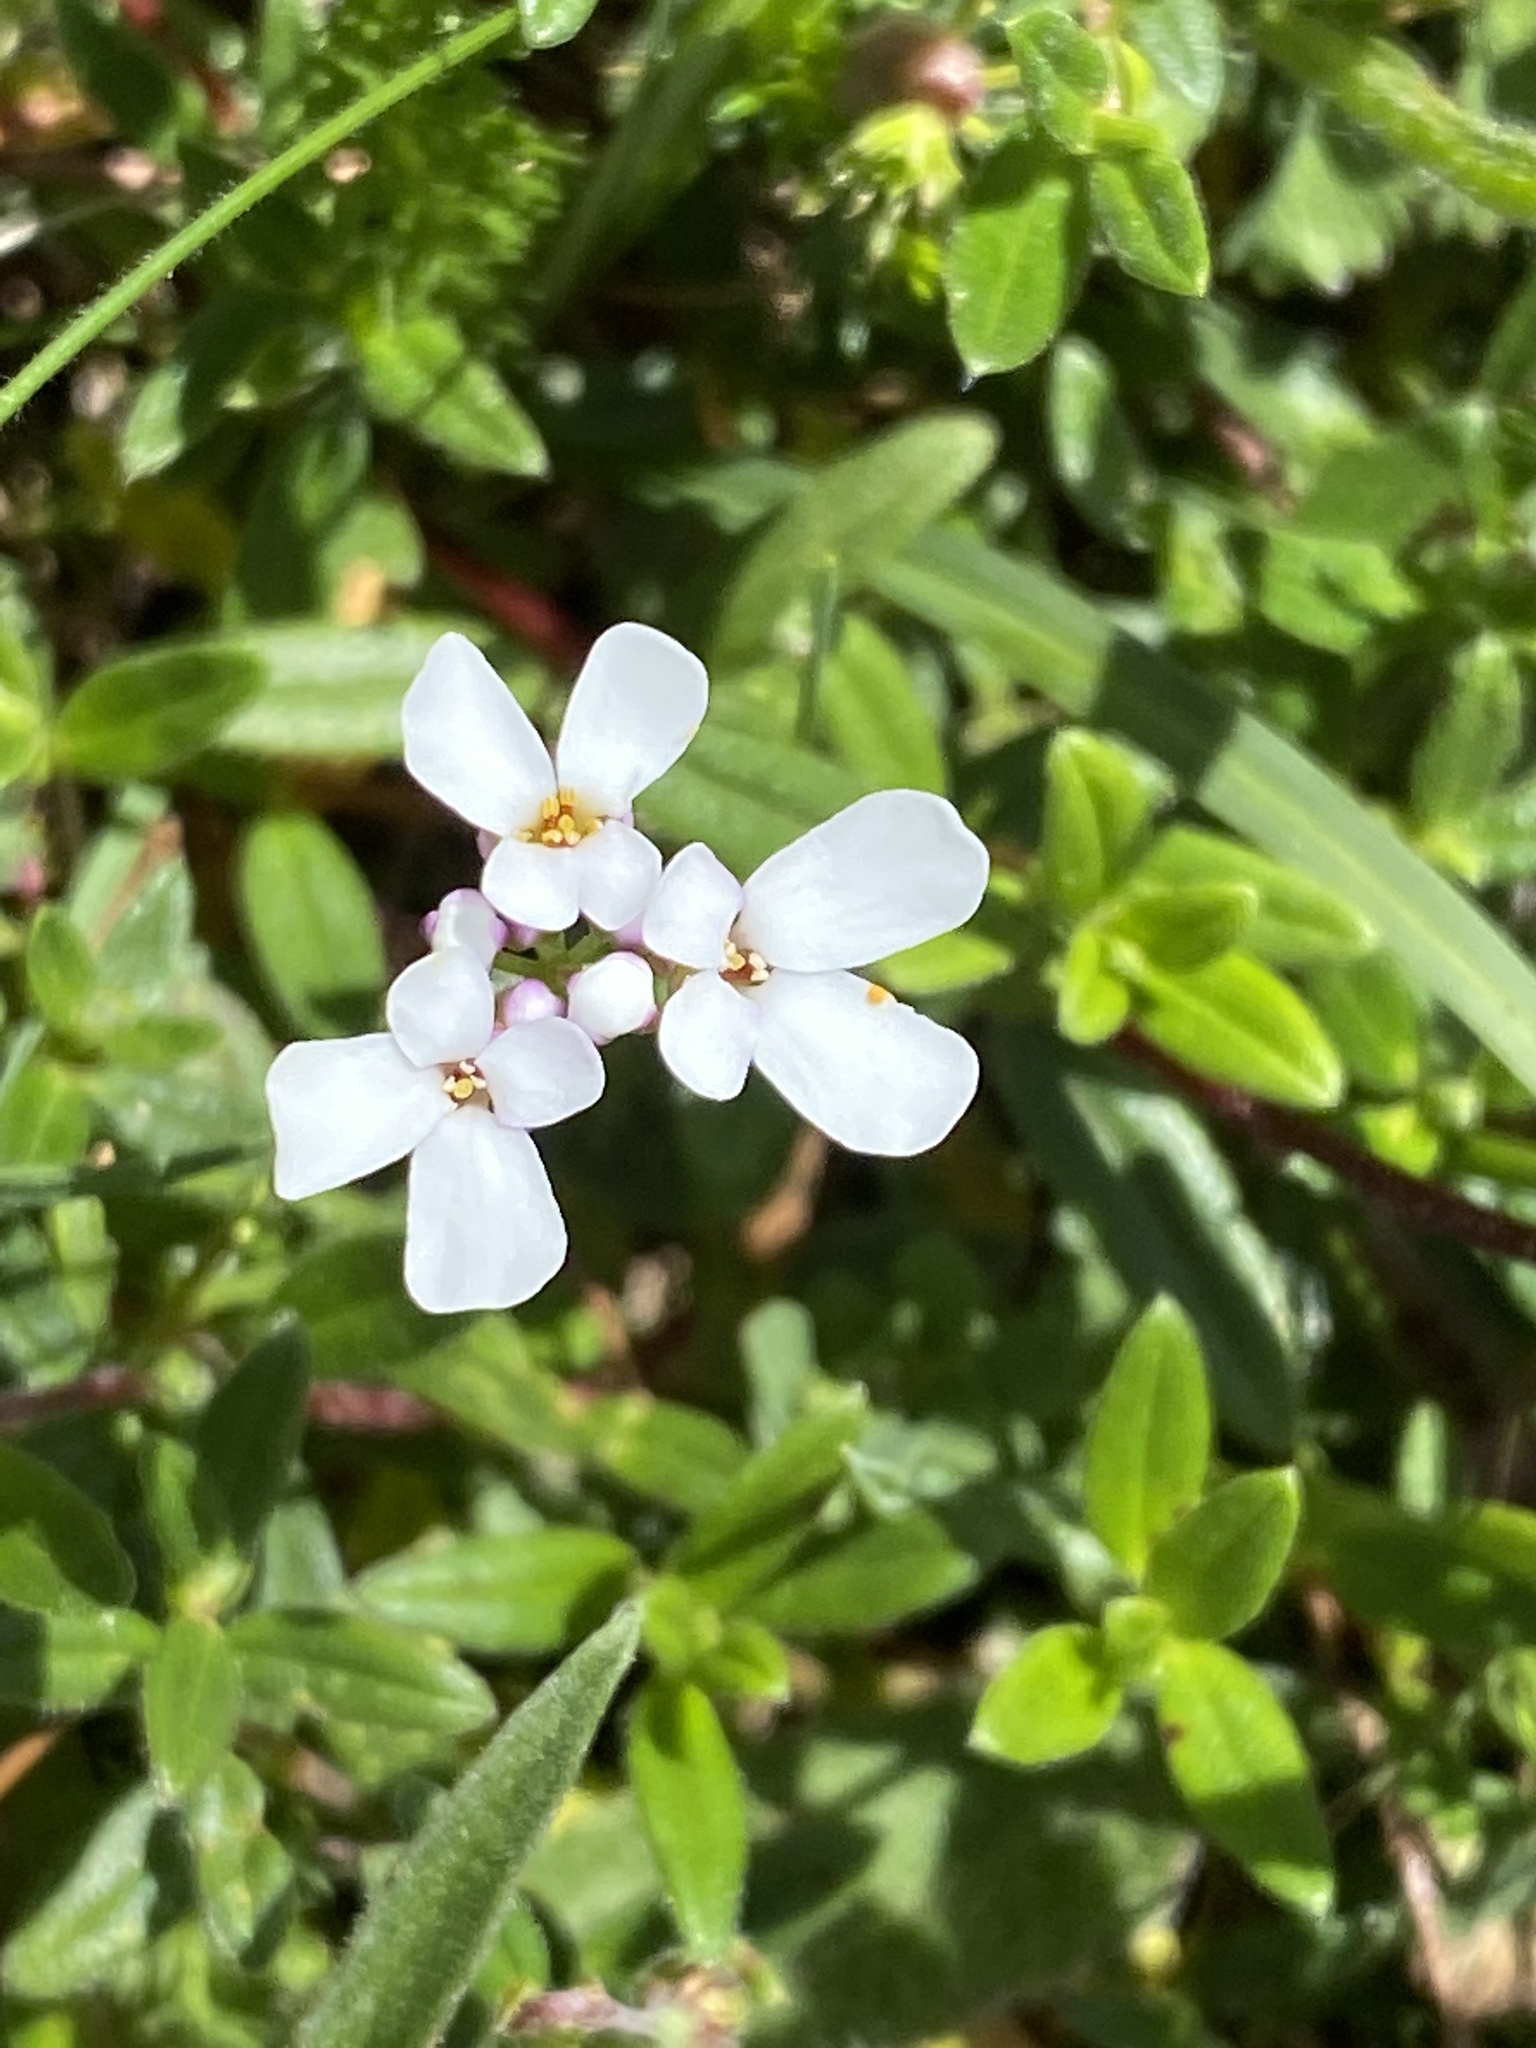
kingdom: Plantae
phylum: Tracheophyta
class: Magnoliopsida
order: Brassicales
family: Brassicaceae
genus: Iberis
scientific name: Iberis amara
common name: Annual candytuft
